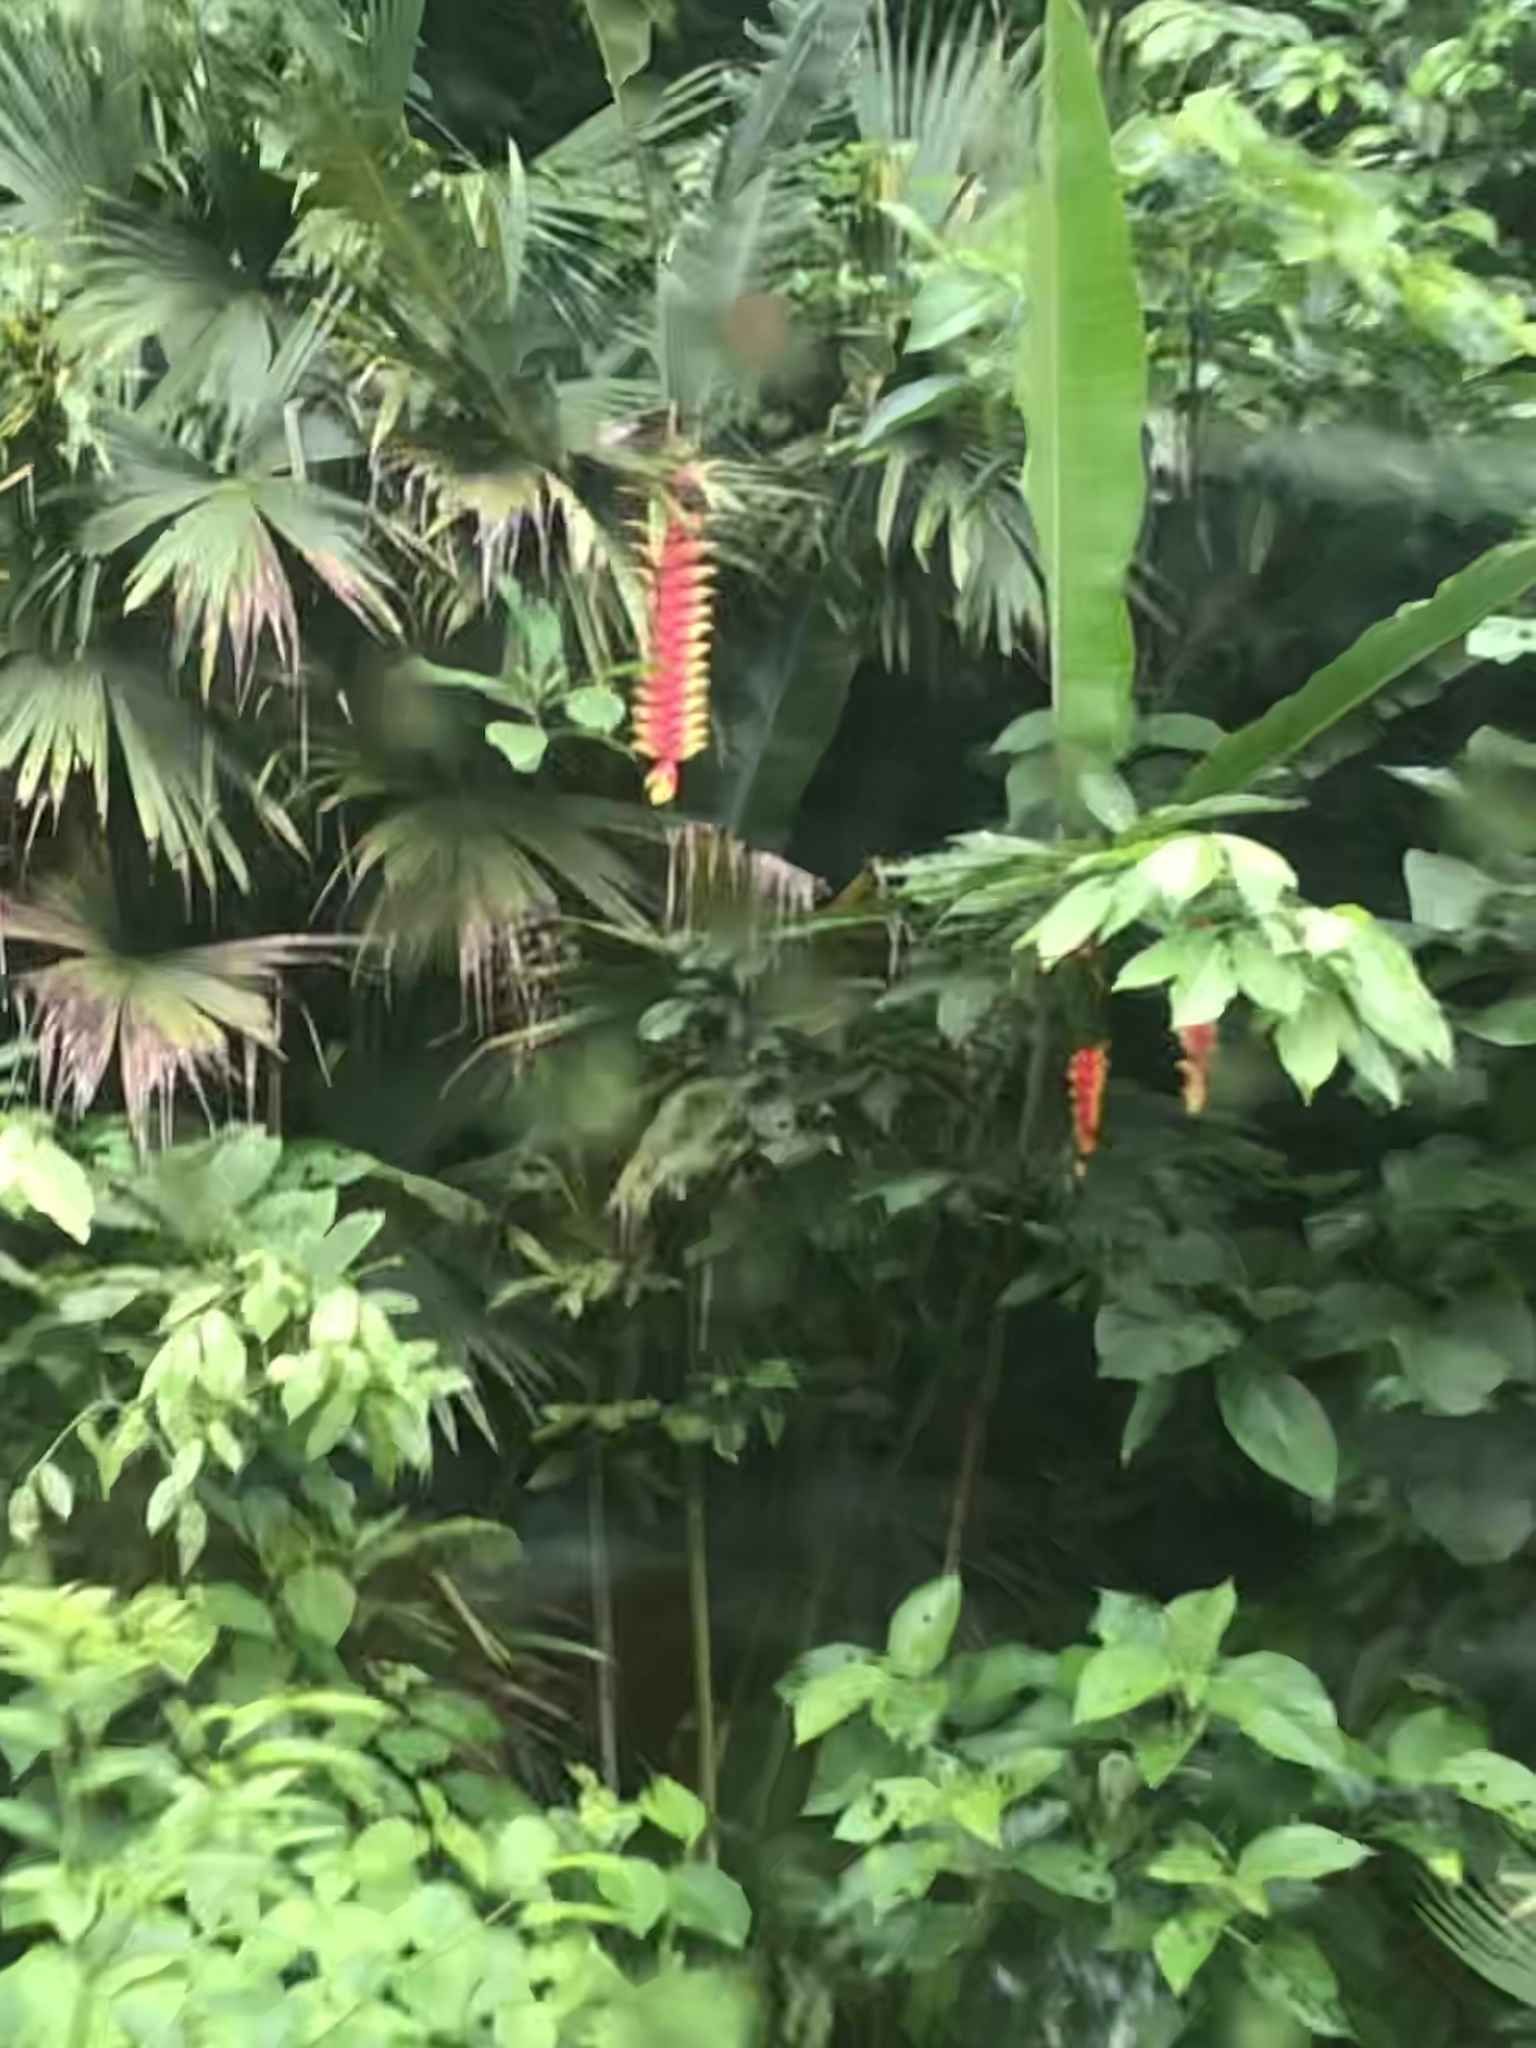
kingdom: Plantae
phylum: Tracheophyta
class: Liliopsida
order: Zingiberales
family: Heliconiaceae
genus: Heliconia
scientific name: Heliconia rostrata
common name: False bird of paradise
